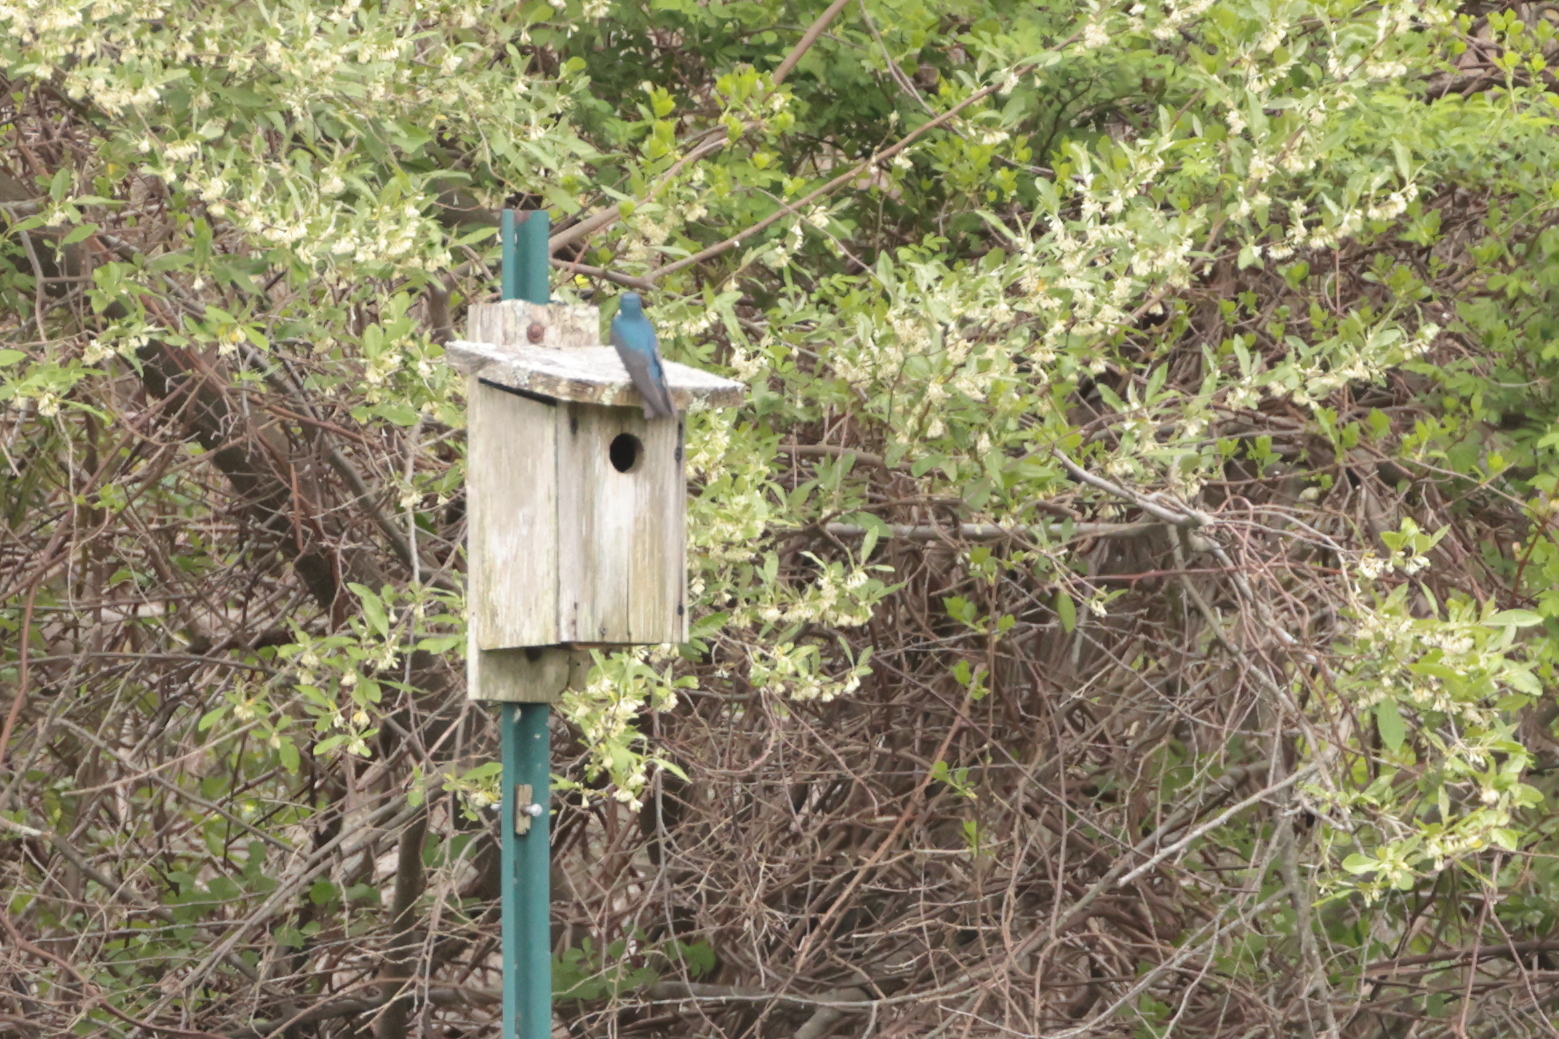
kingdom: Animalia
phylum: Chordata
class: Aves
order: Passeriformes
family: Hirundinidae
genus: Tachycineta
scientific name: Tachycineta bicolor
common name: Tree swallow
